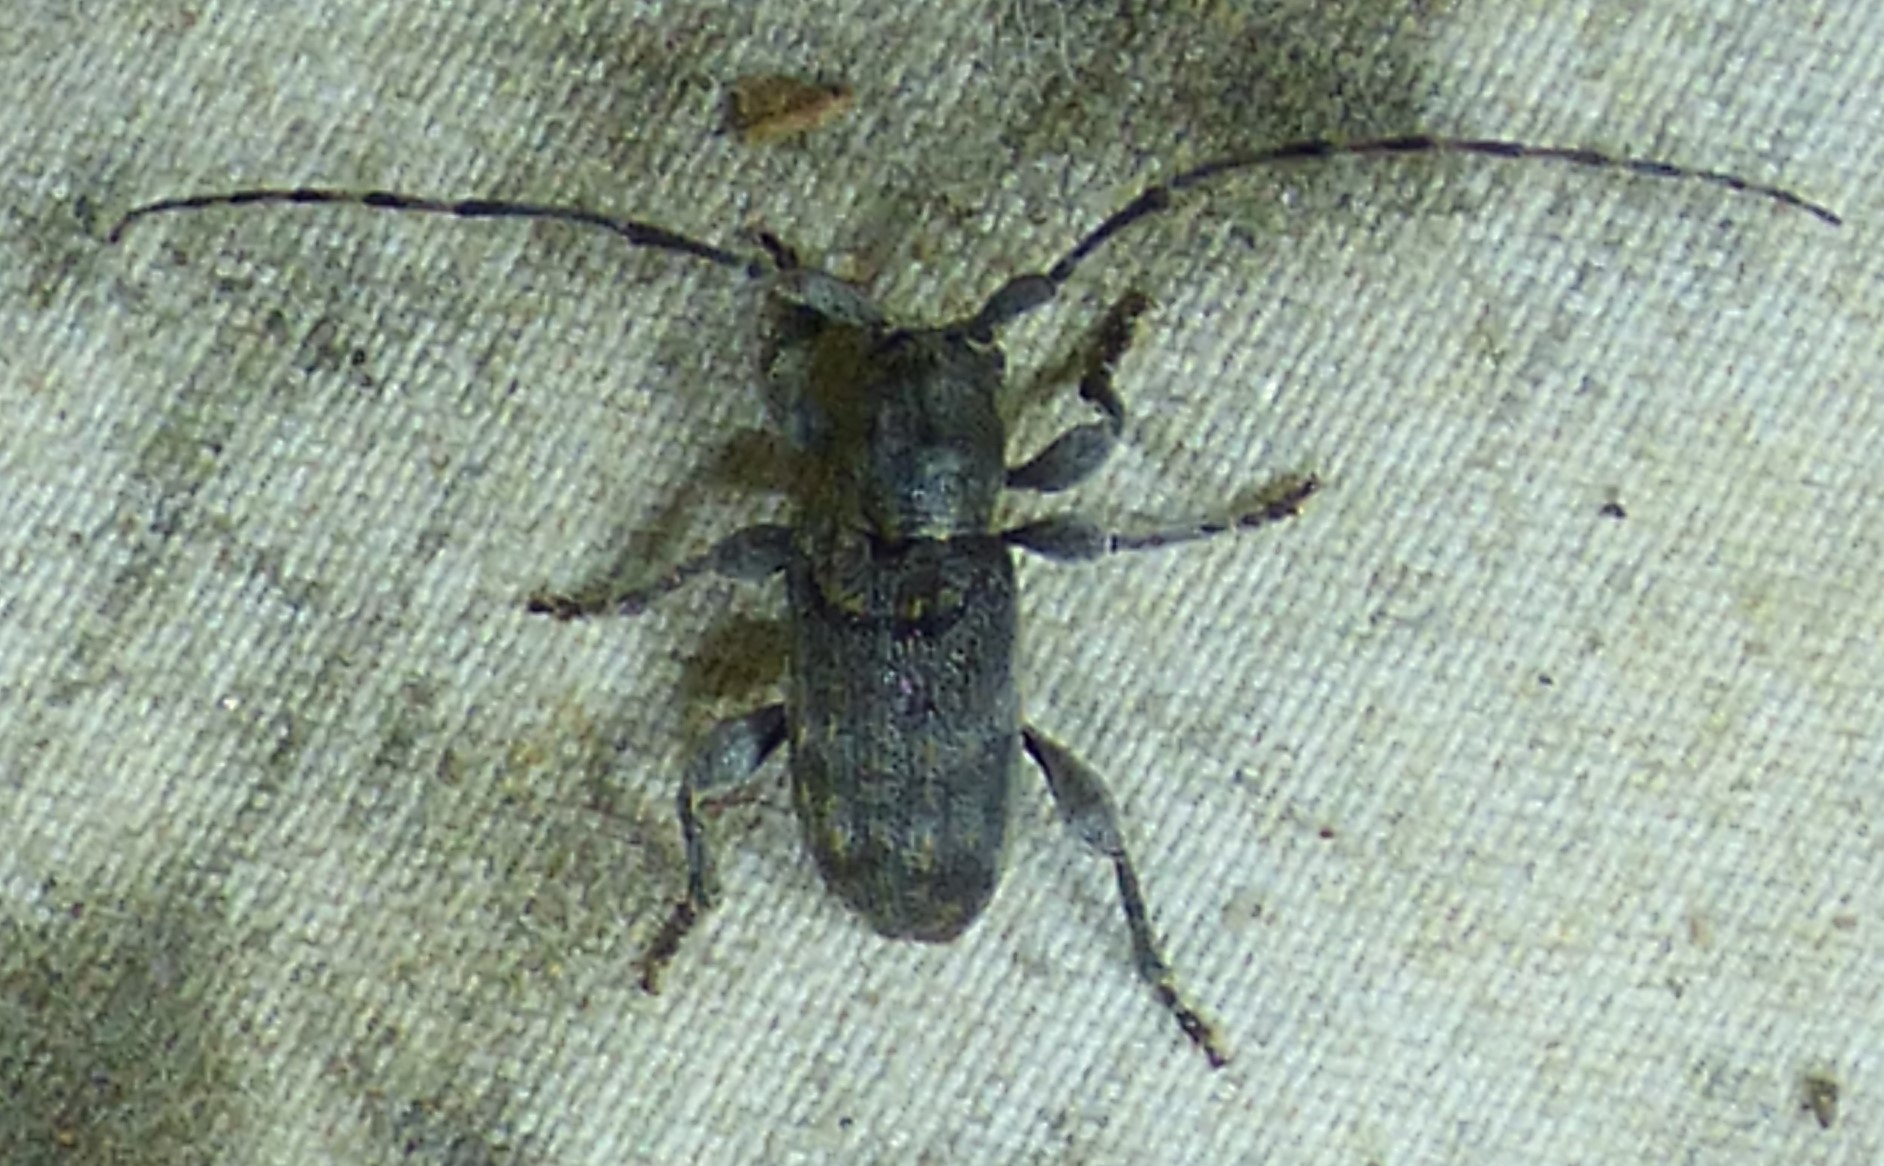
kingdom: Animalia
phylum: Arthropoda
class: Insecta
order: Coleoptera
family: Cerambycidae
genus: Ecyrus
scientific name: Ecyrus dasycerus
